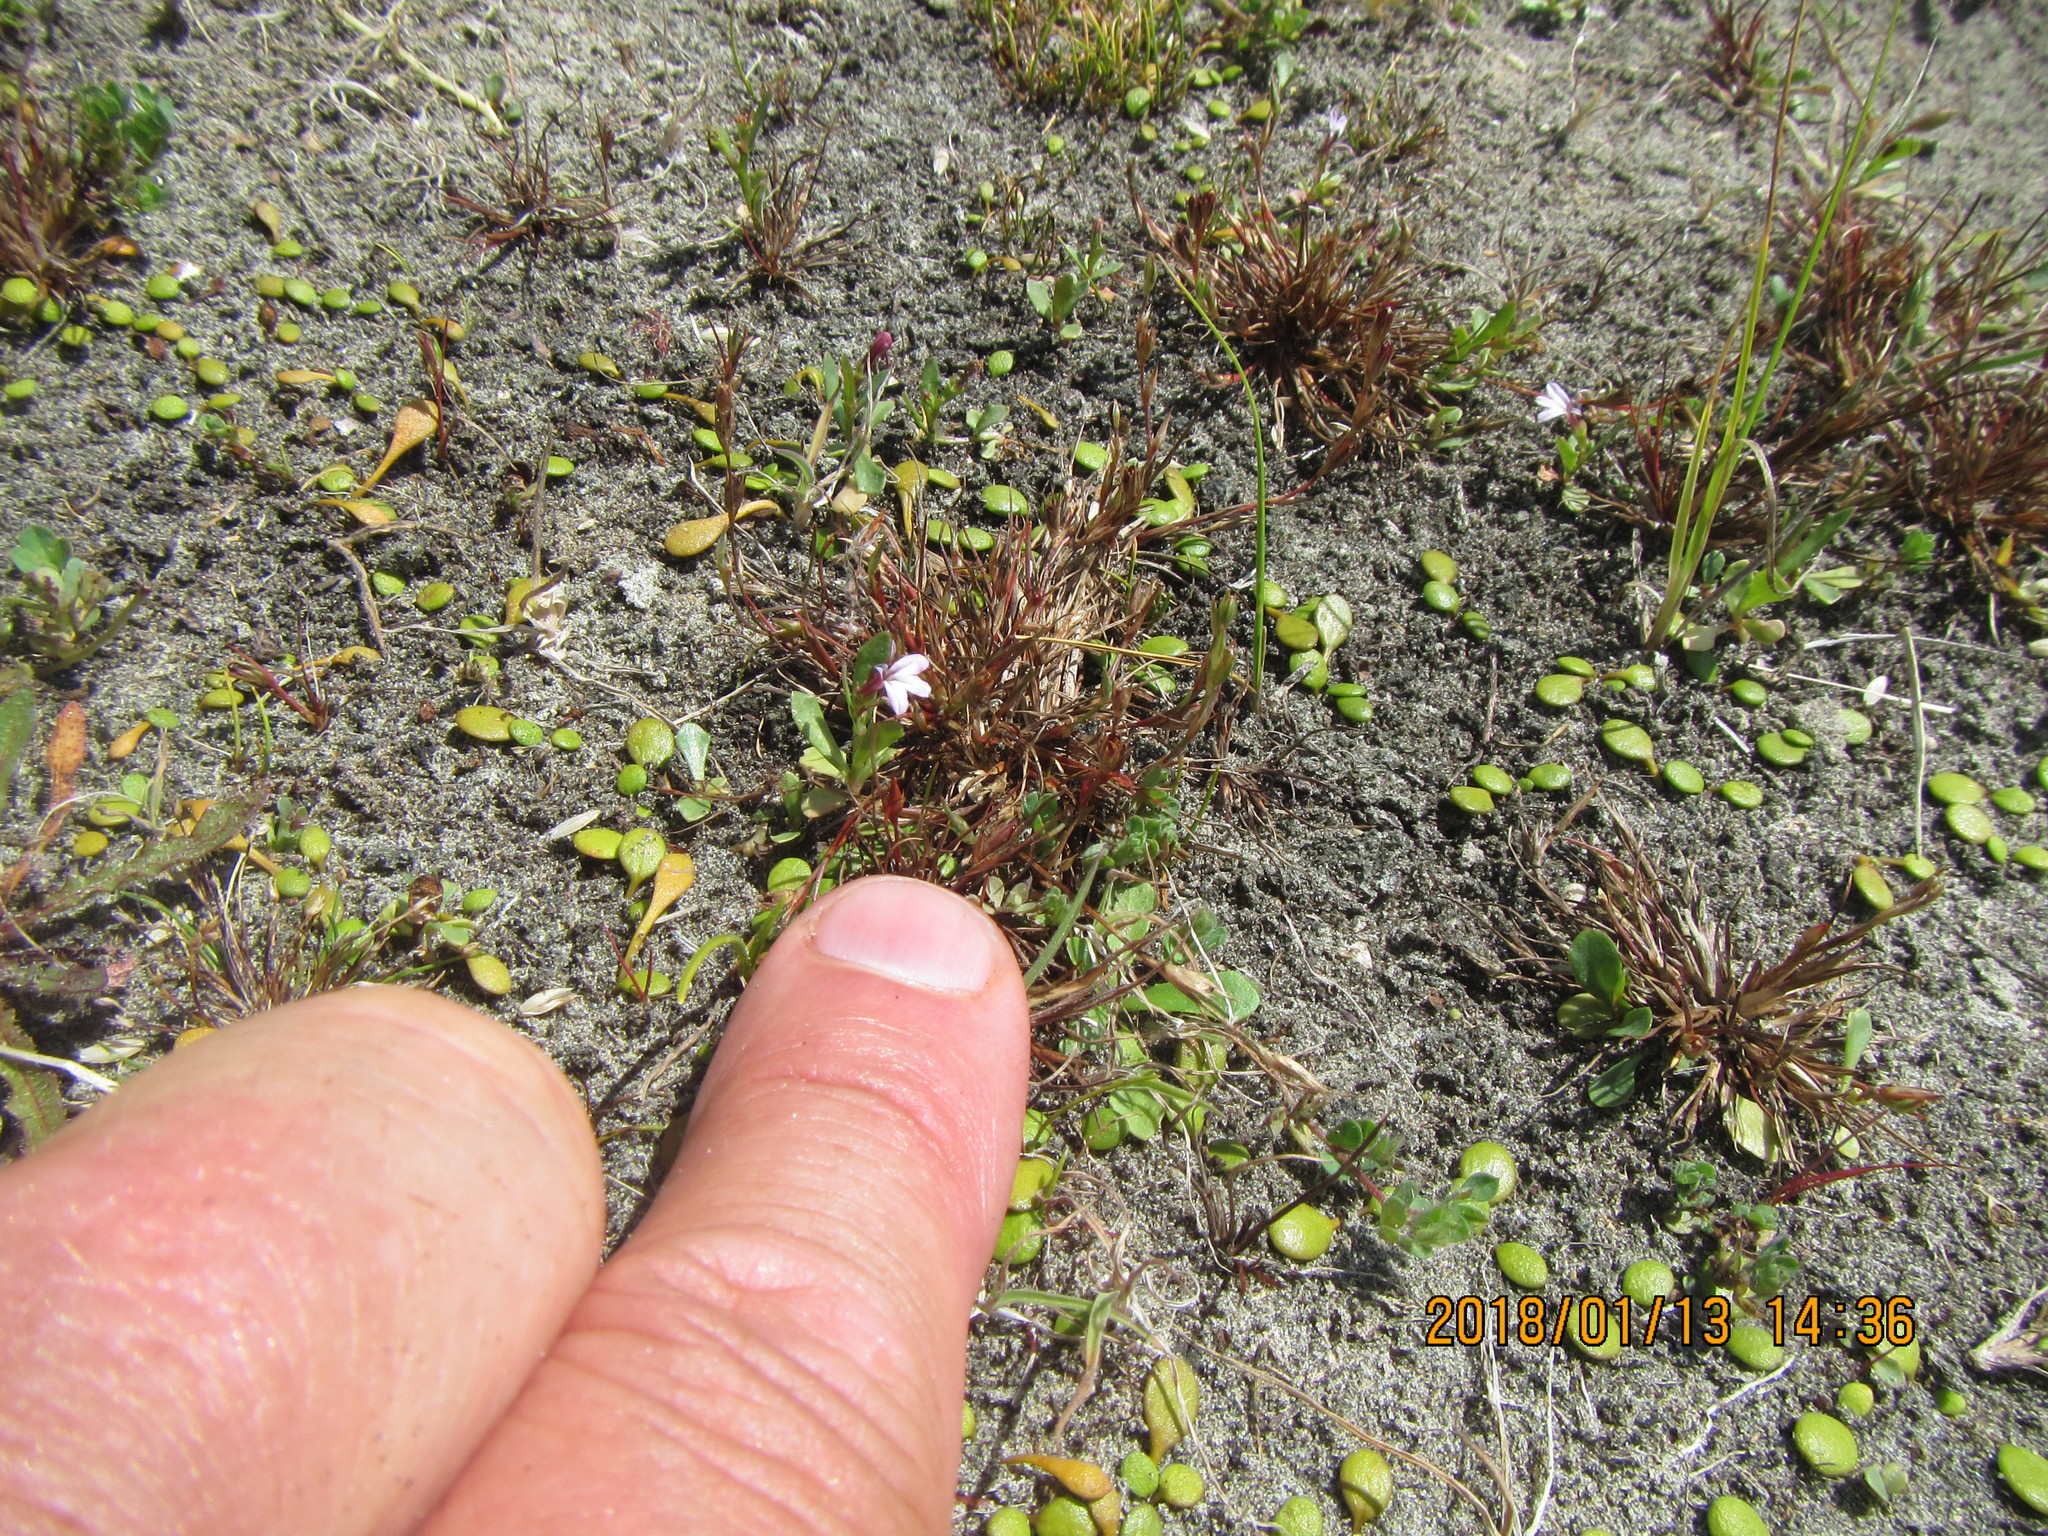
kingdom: Plantae
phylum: Tracheophyta
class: Liliopsida
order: Poales
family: Juncaceae
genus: Juncus
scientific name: Juncus bufonius
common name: Toad rush
